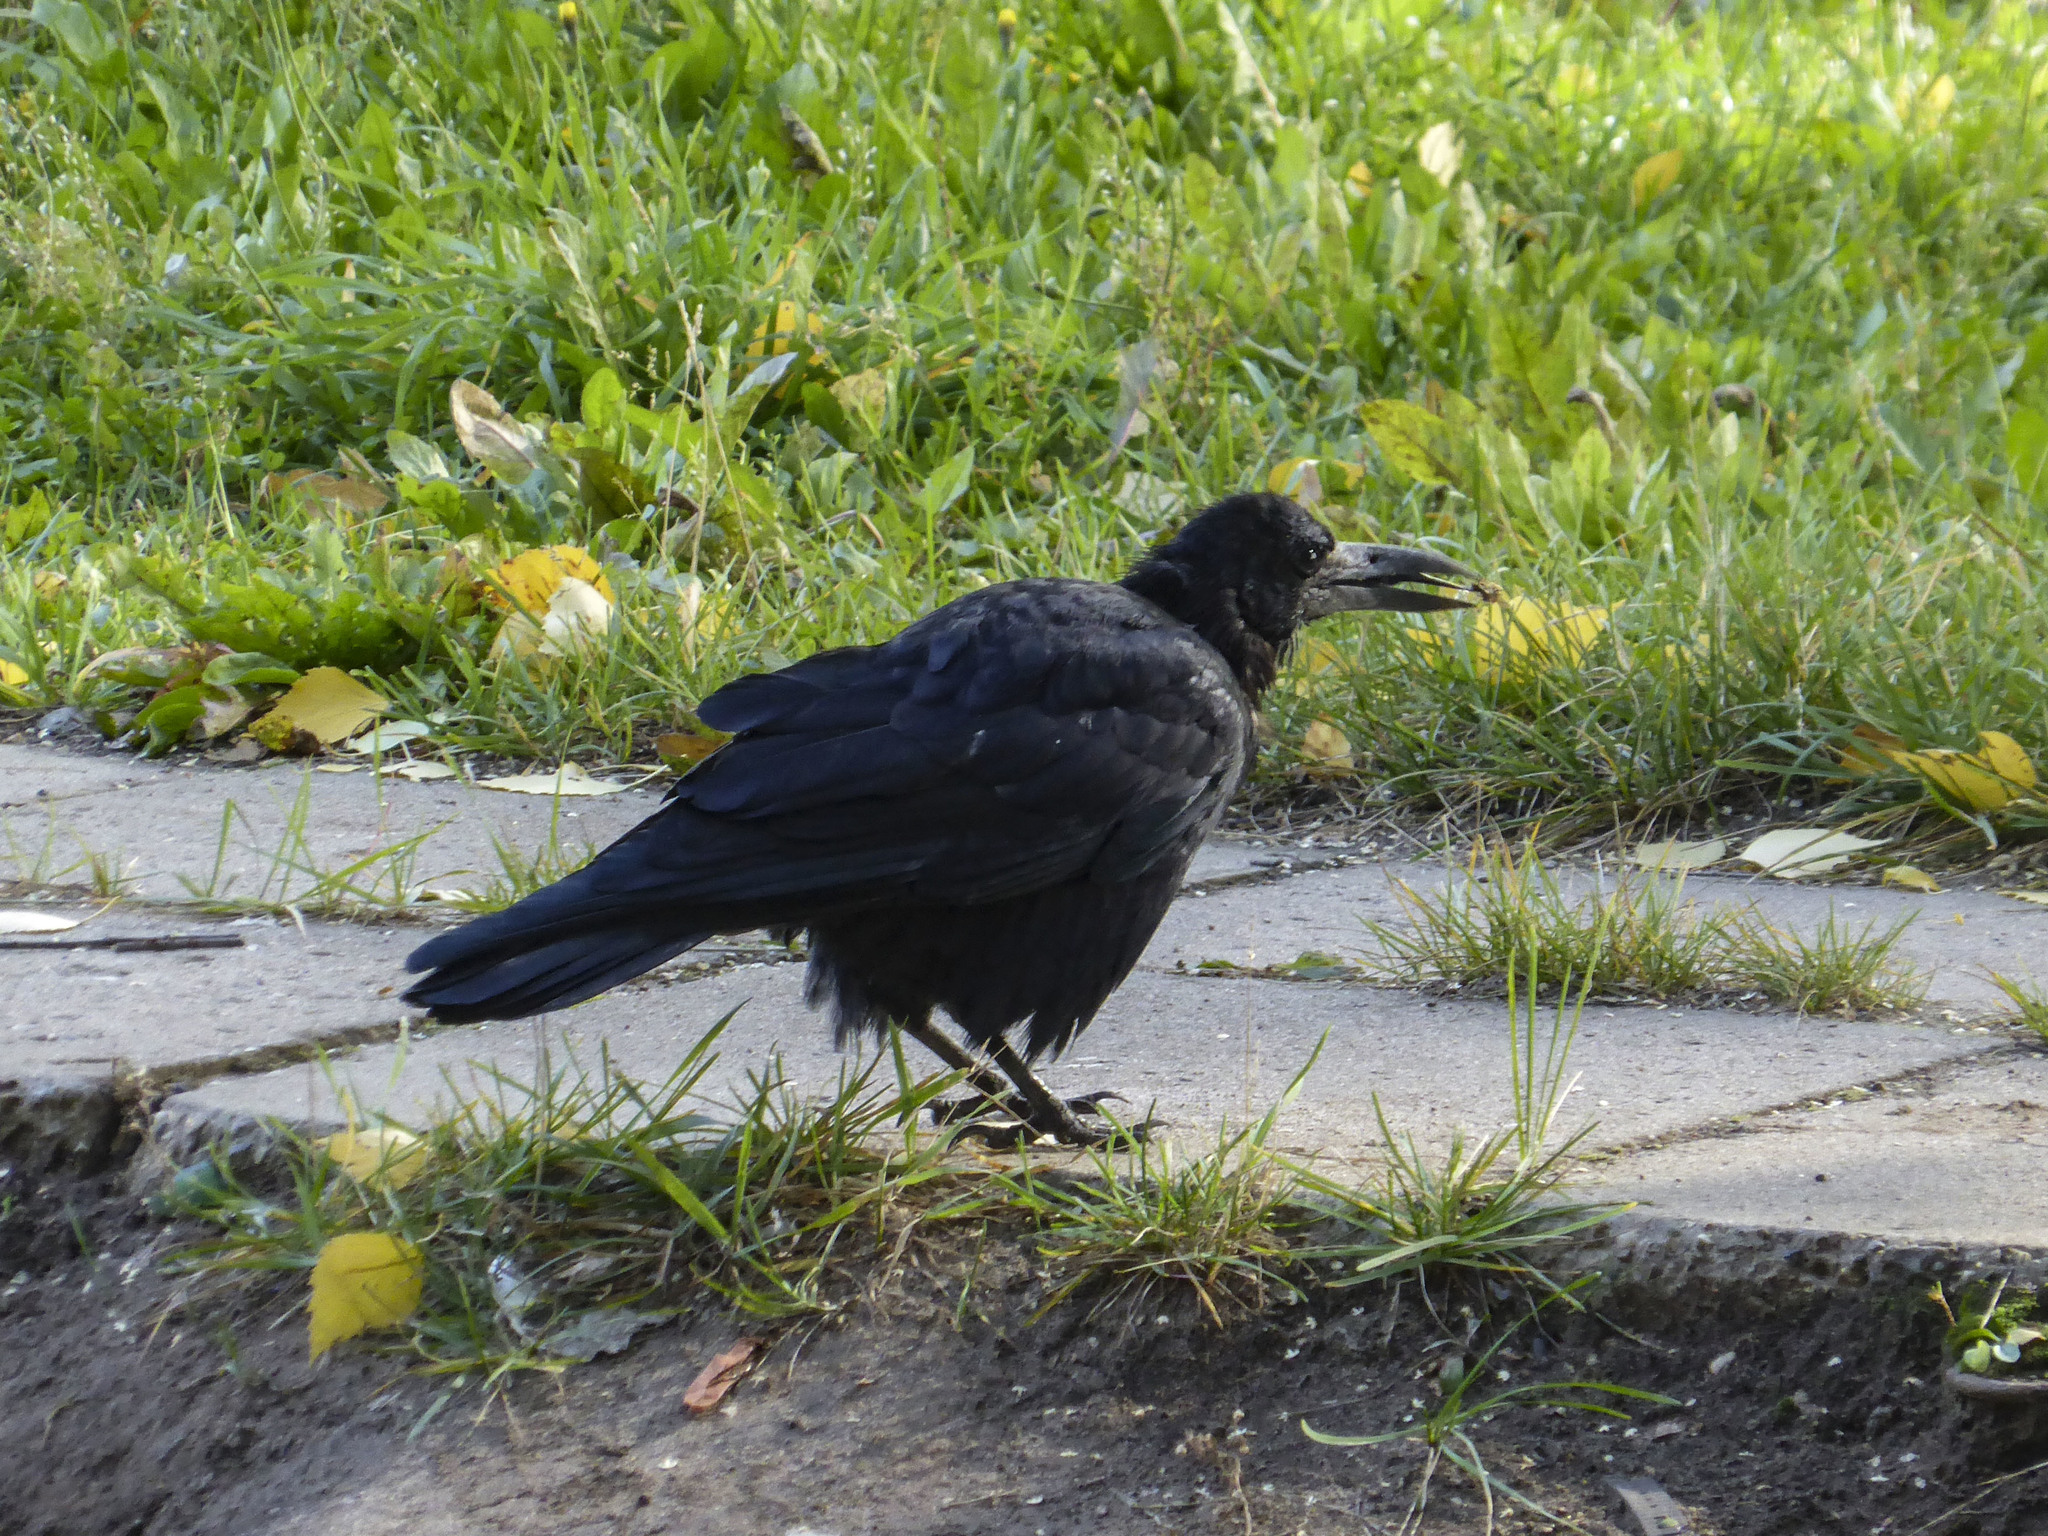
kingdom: Animalia
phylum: Chordata
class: Aves
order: Passeriformes
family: Corvidae
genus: Corvus
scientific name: Corvus frugilegus
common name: Rook
